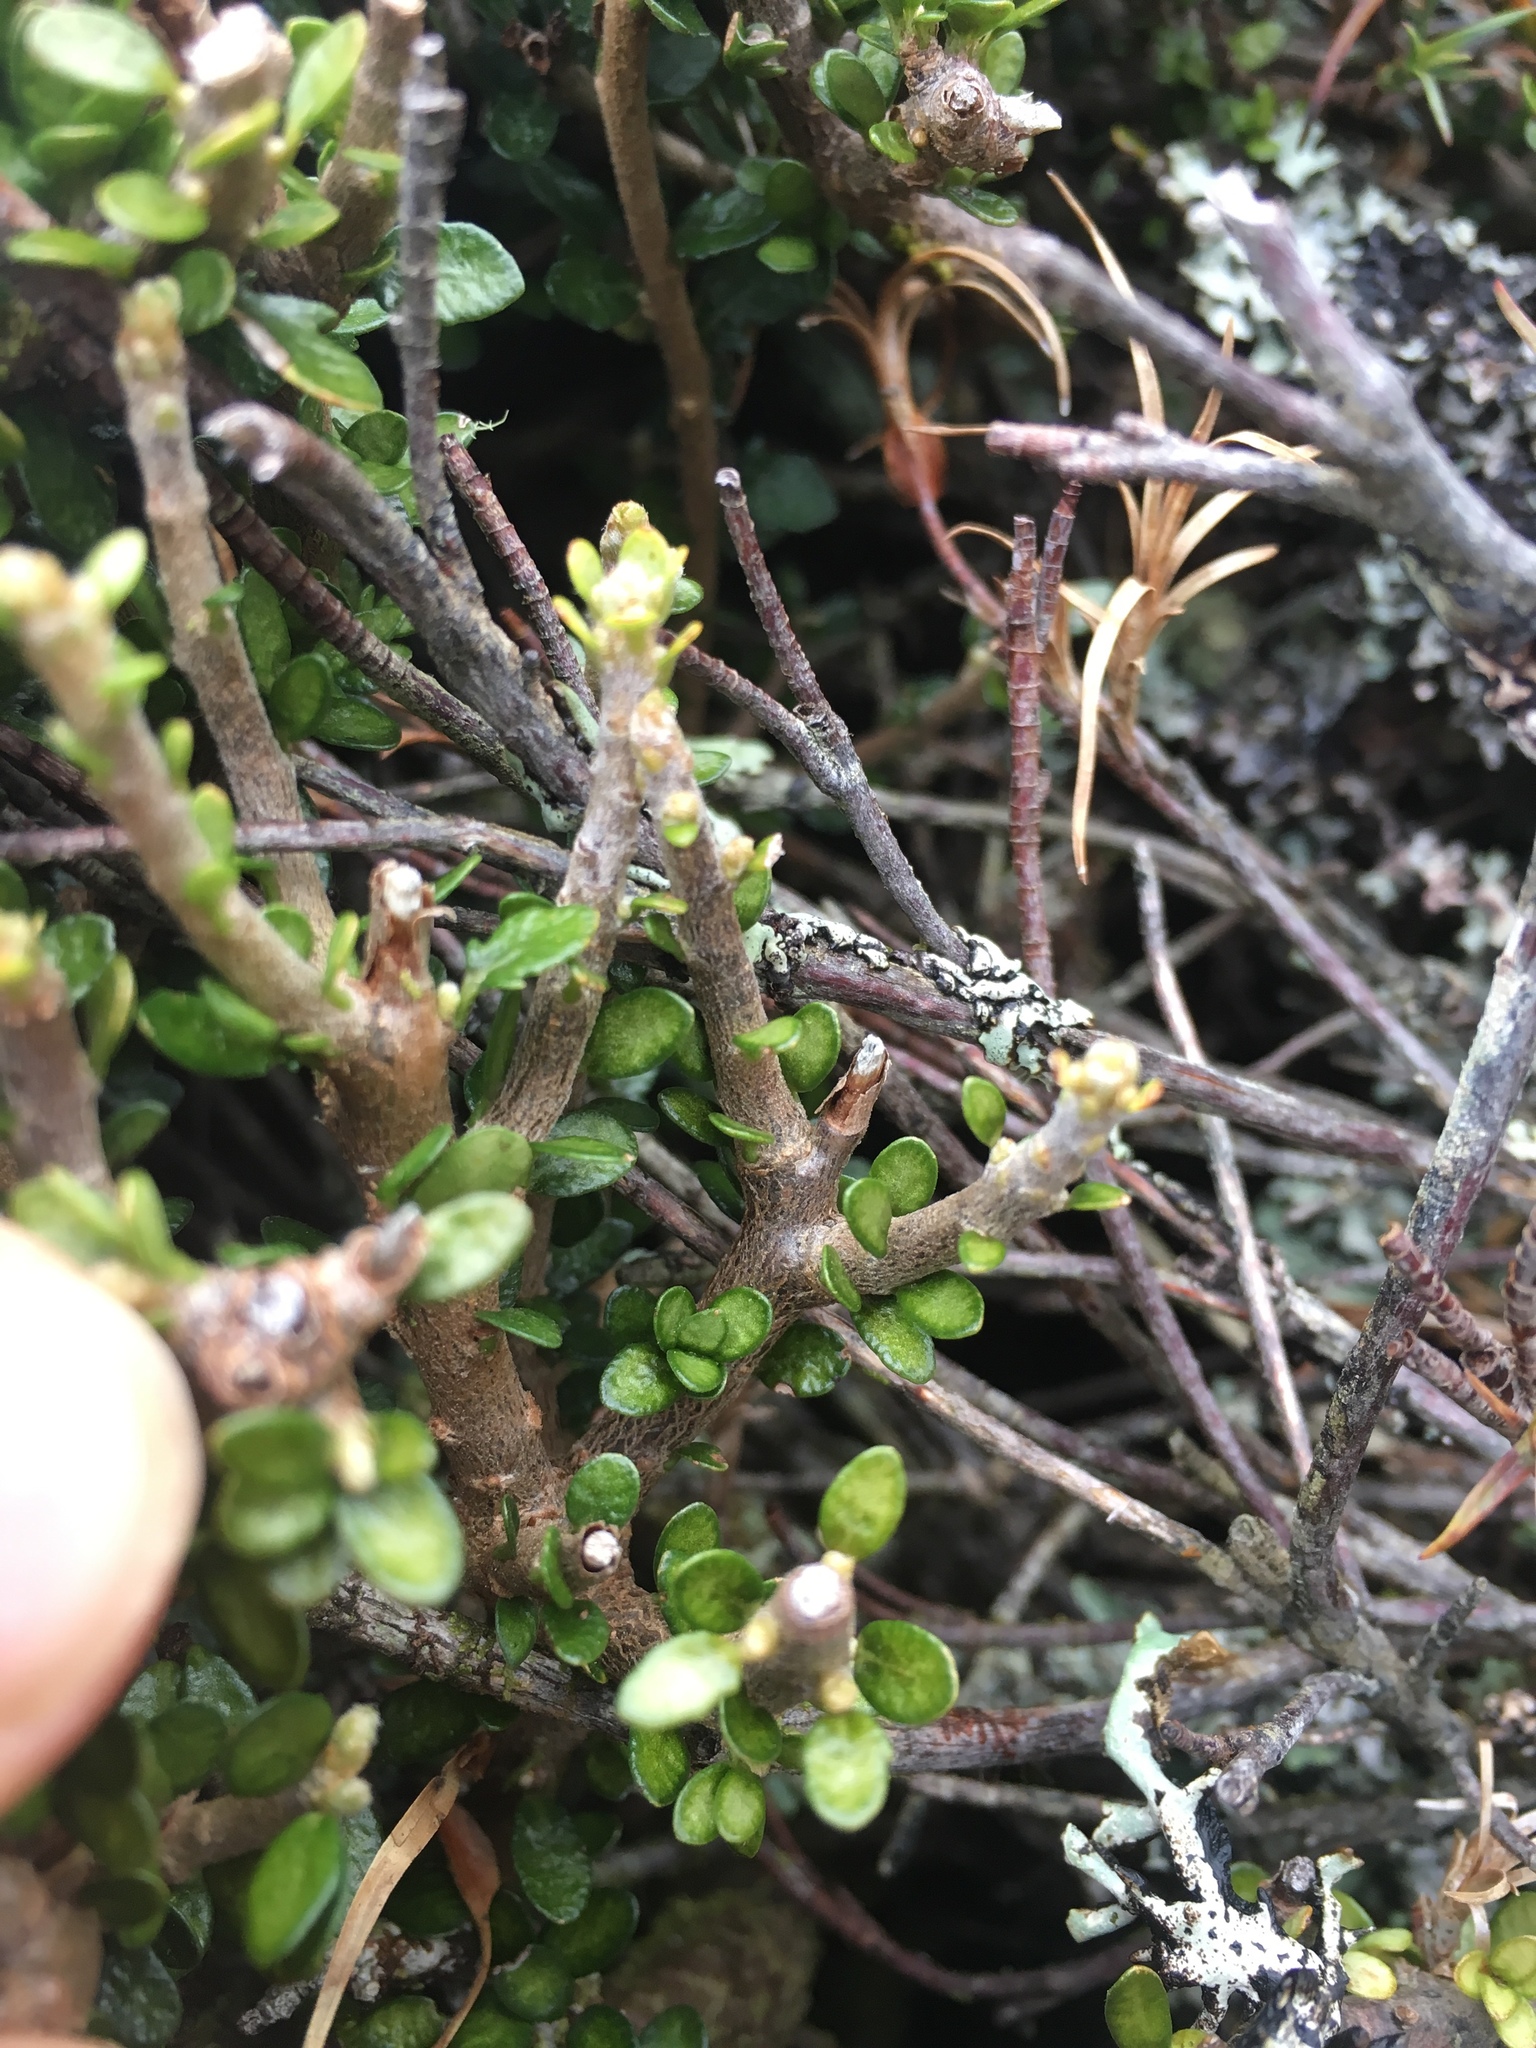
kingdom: Plantae
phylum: Tracheophyta
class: Magnoliopsida
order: Apiales
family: Pittosporaceae
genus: Pittosporum
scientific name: Pittosporum rigidum
